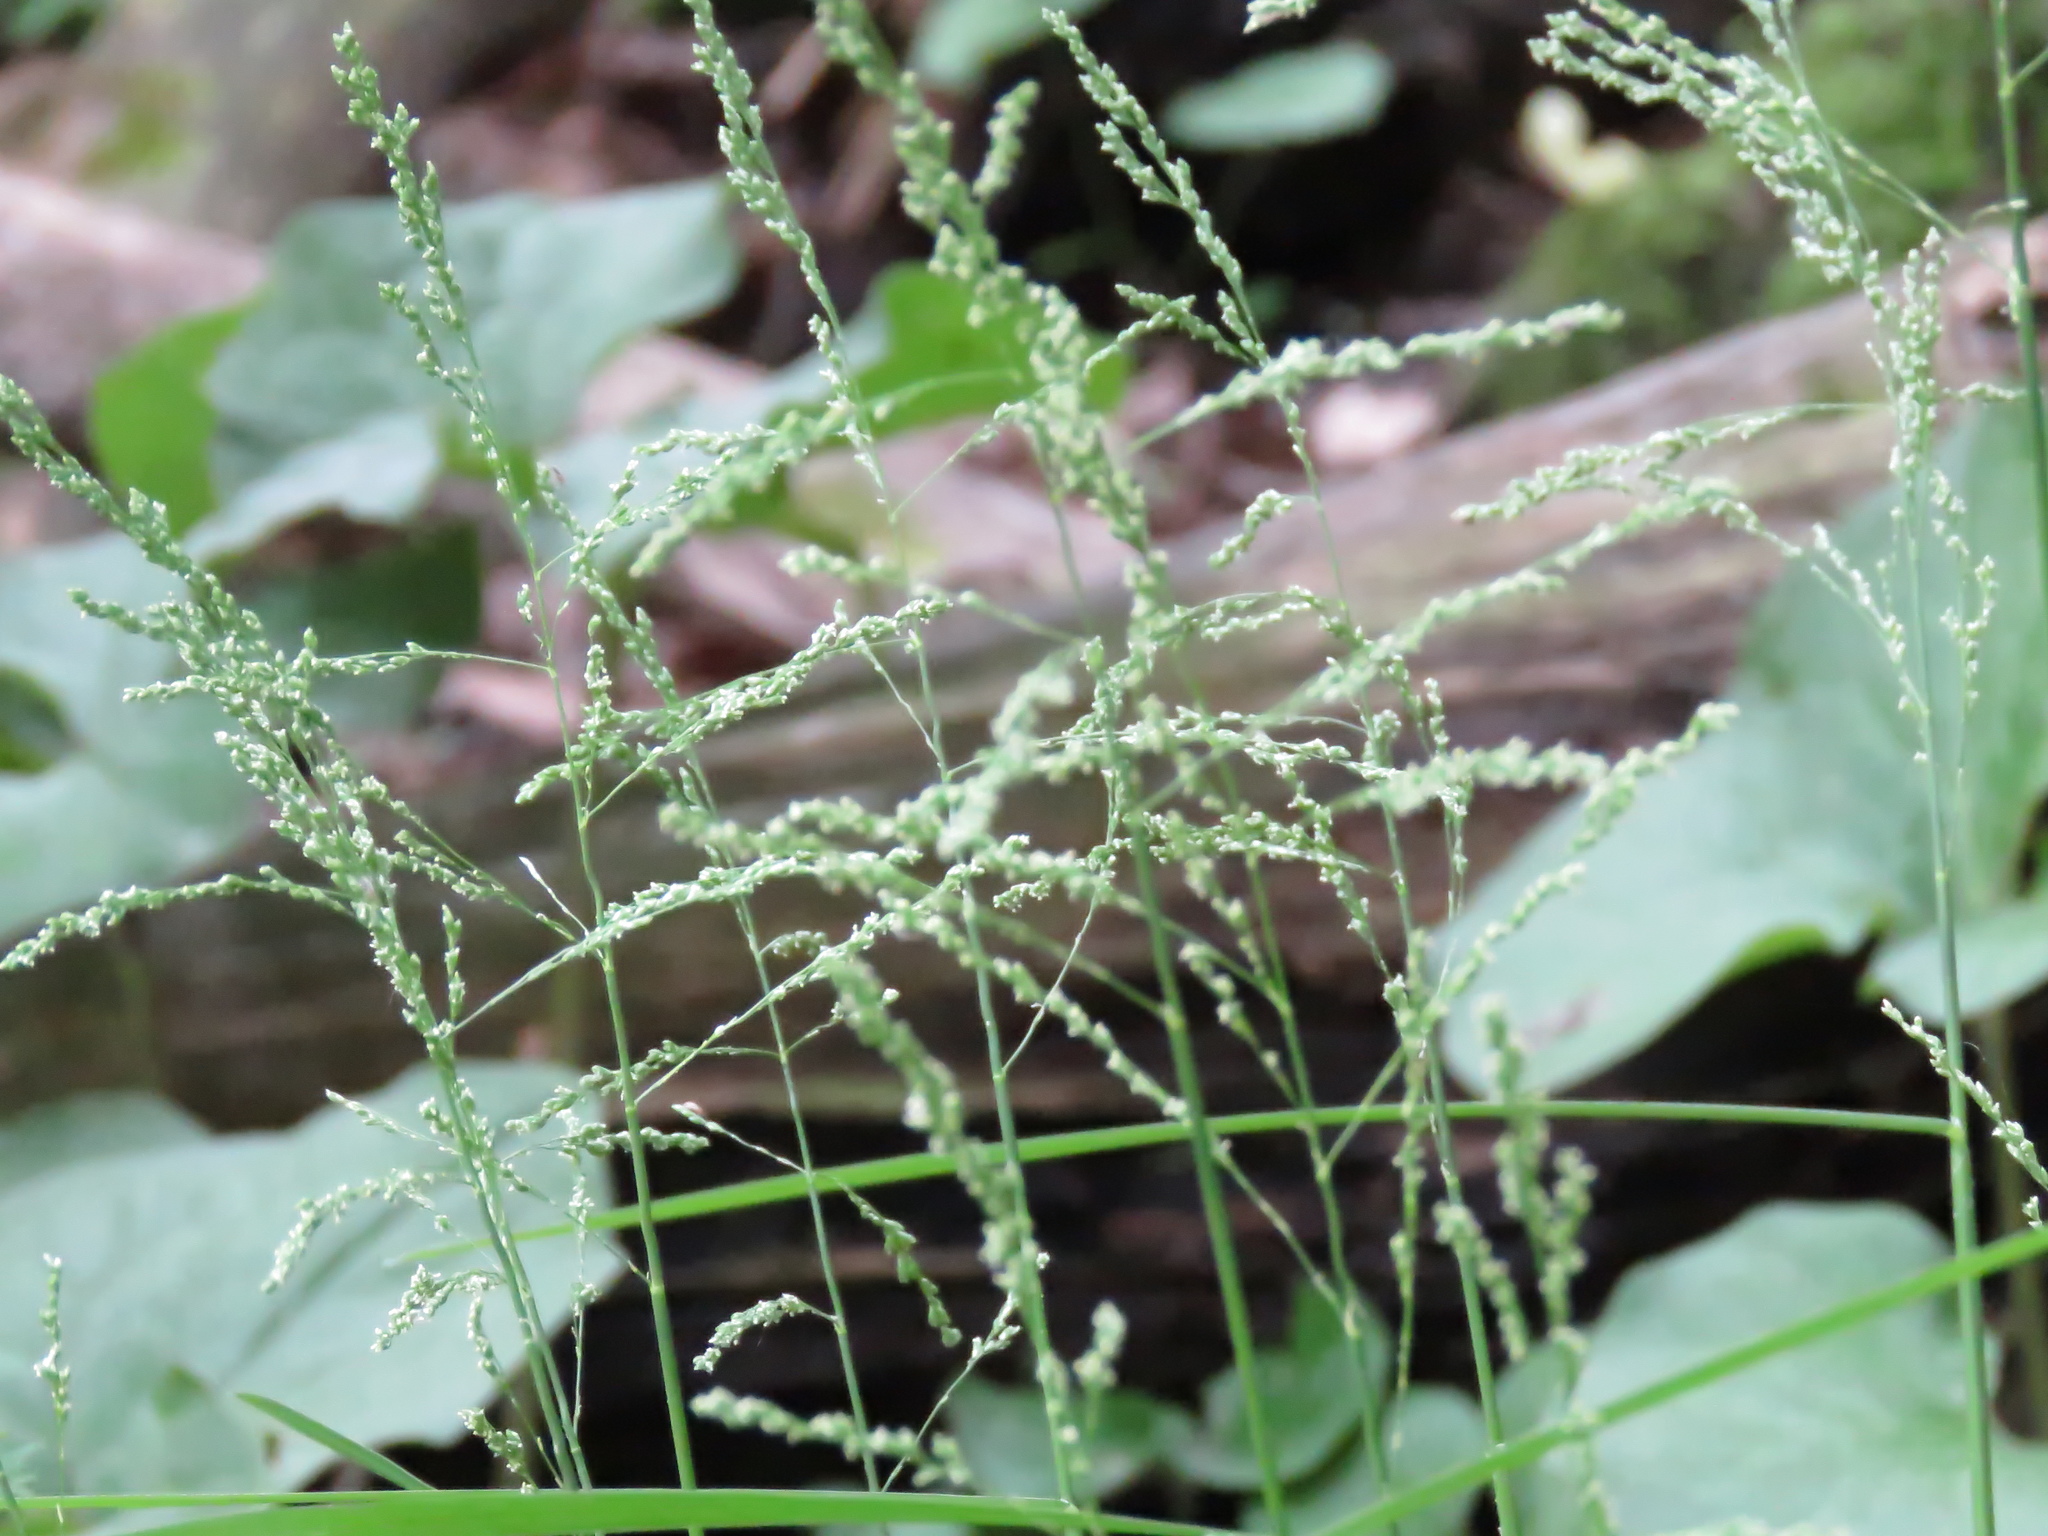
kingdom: Plantae
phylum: Tracheophyta
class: Liliopsida
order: Poales
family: Poaceae
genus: Glyceria
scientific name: Glyceria striata
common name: Fowl manna grass
